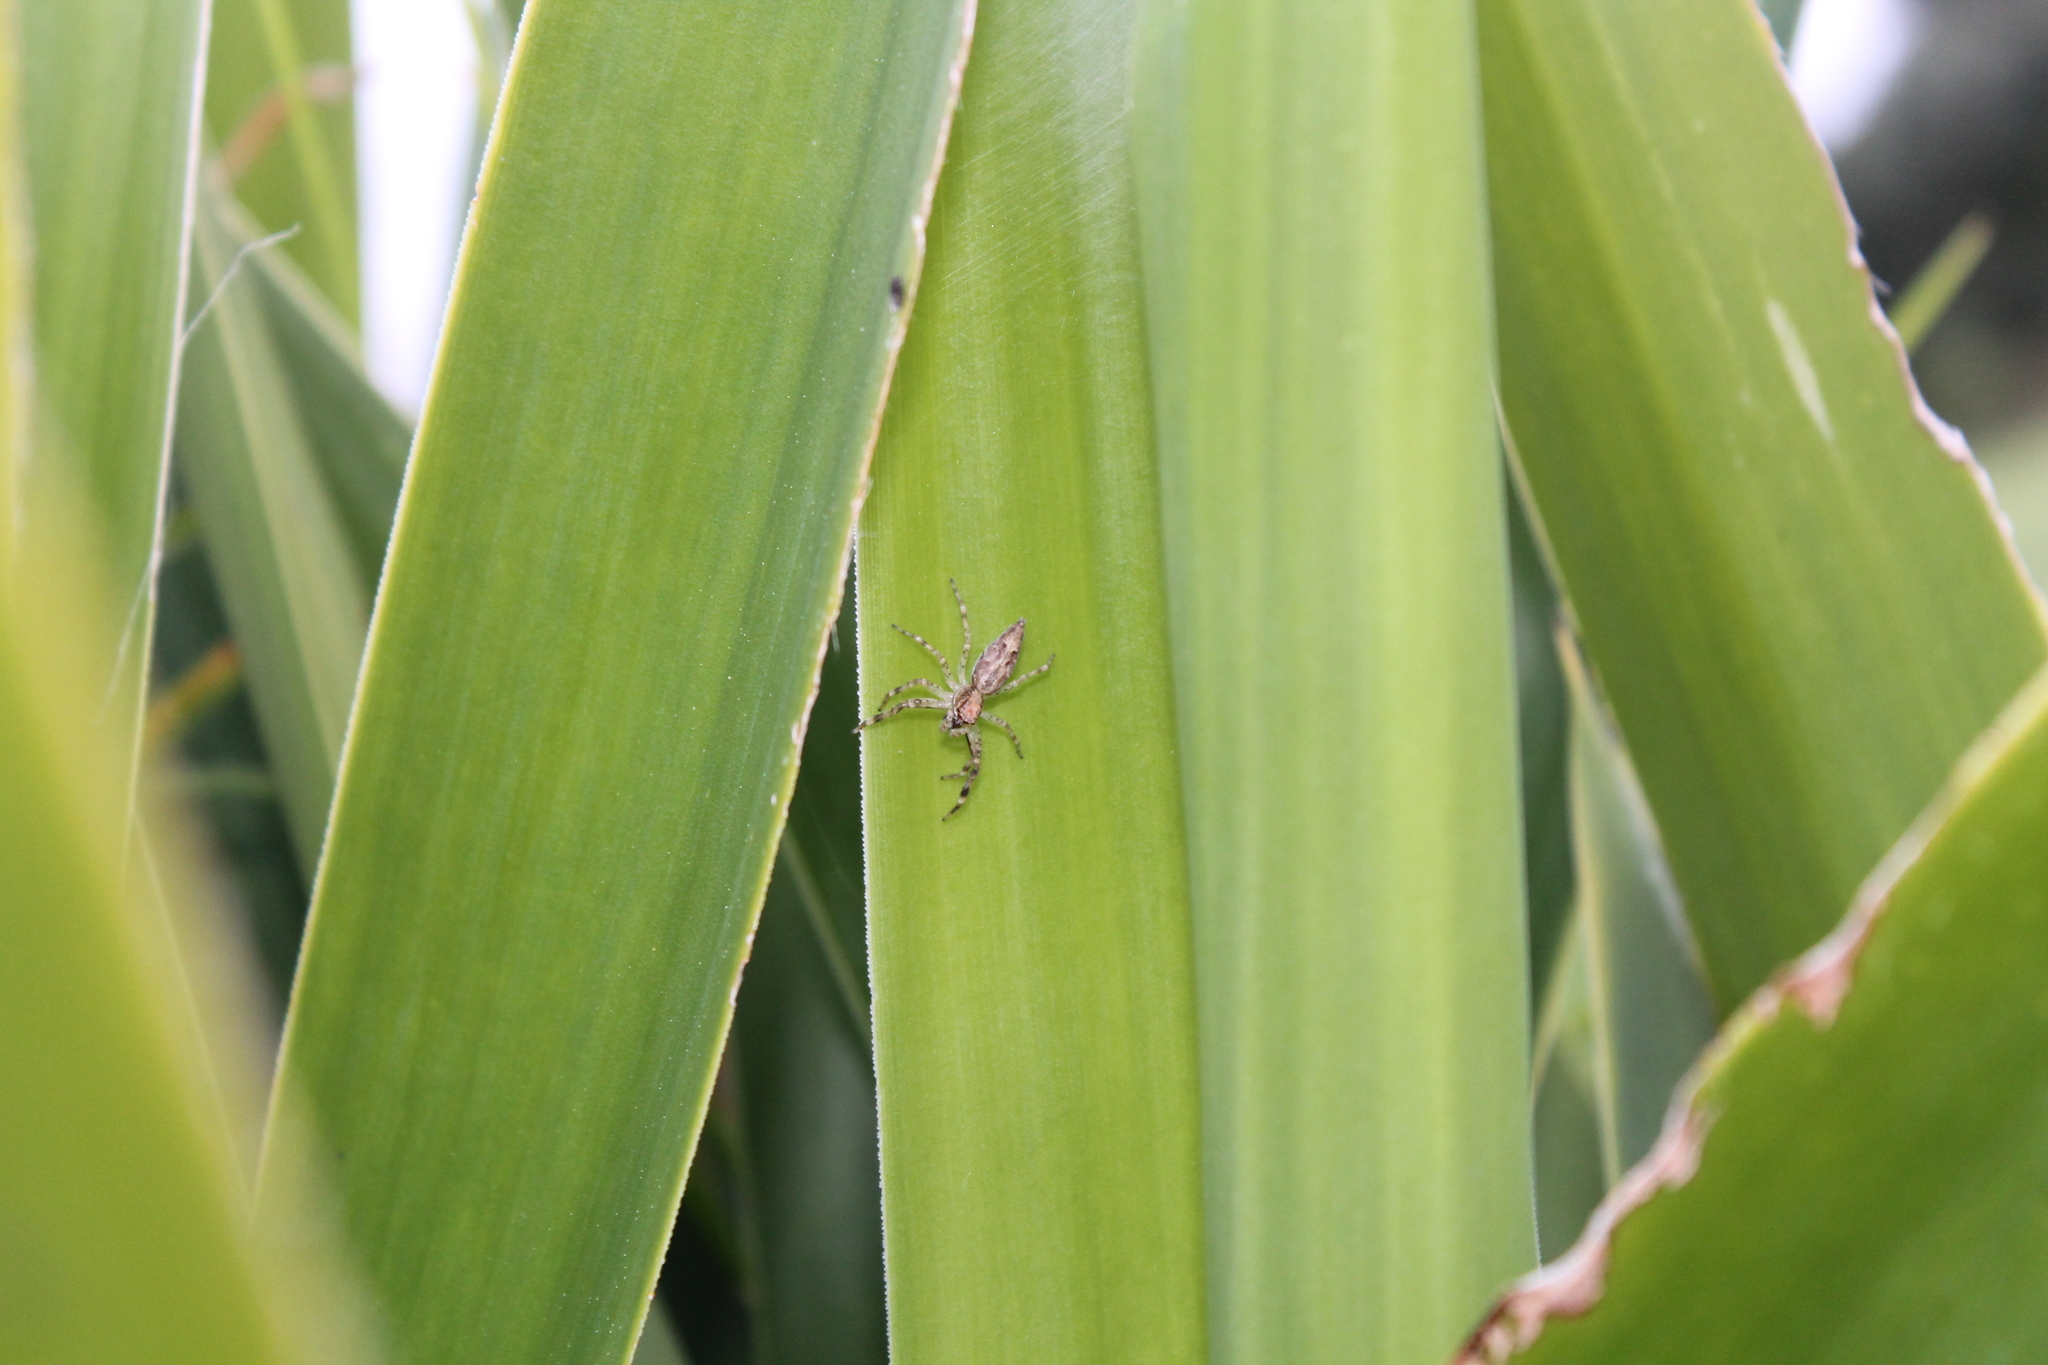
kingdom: Animalia
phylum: Arthropoda
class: Arachnida
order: Araneae
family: Salticidae
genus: Helpis
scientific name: Helpis minitabunda
